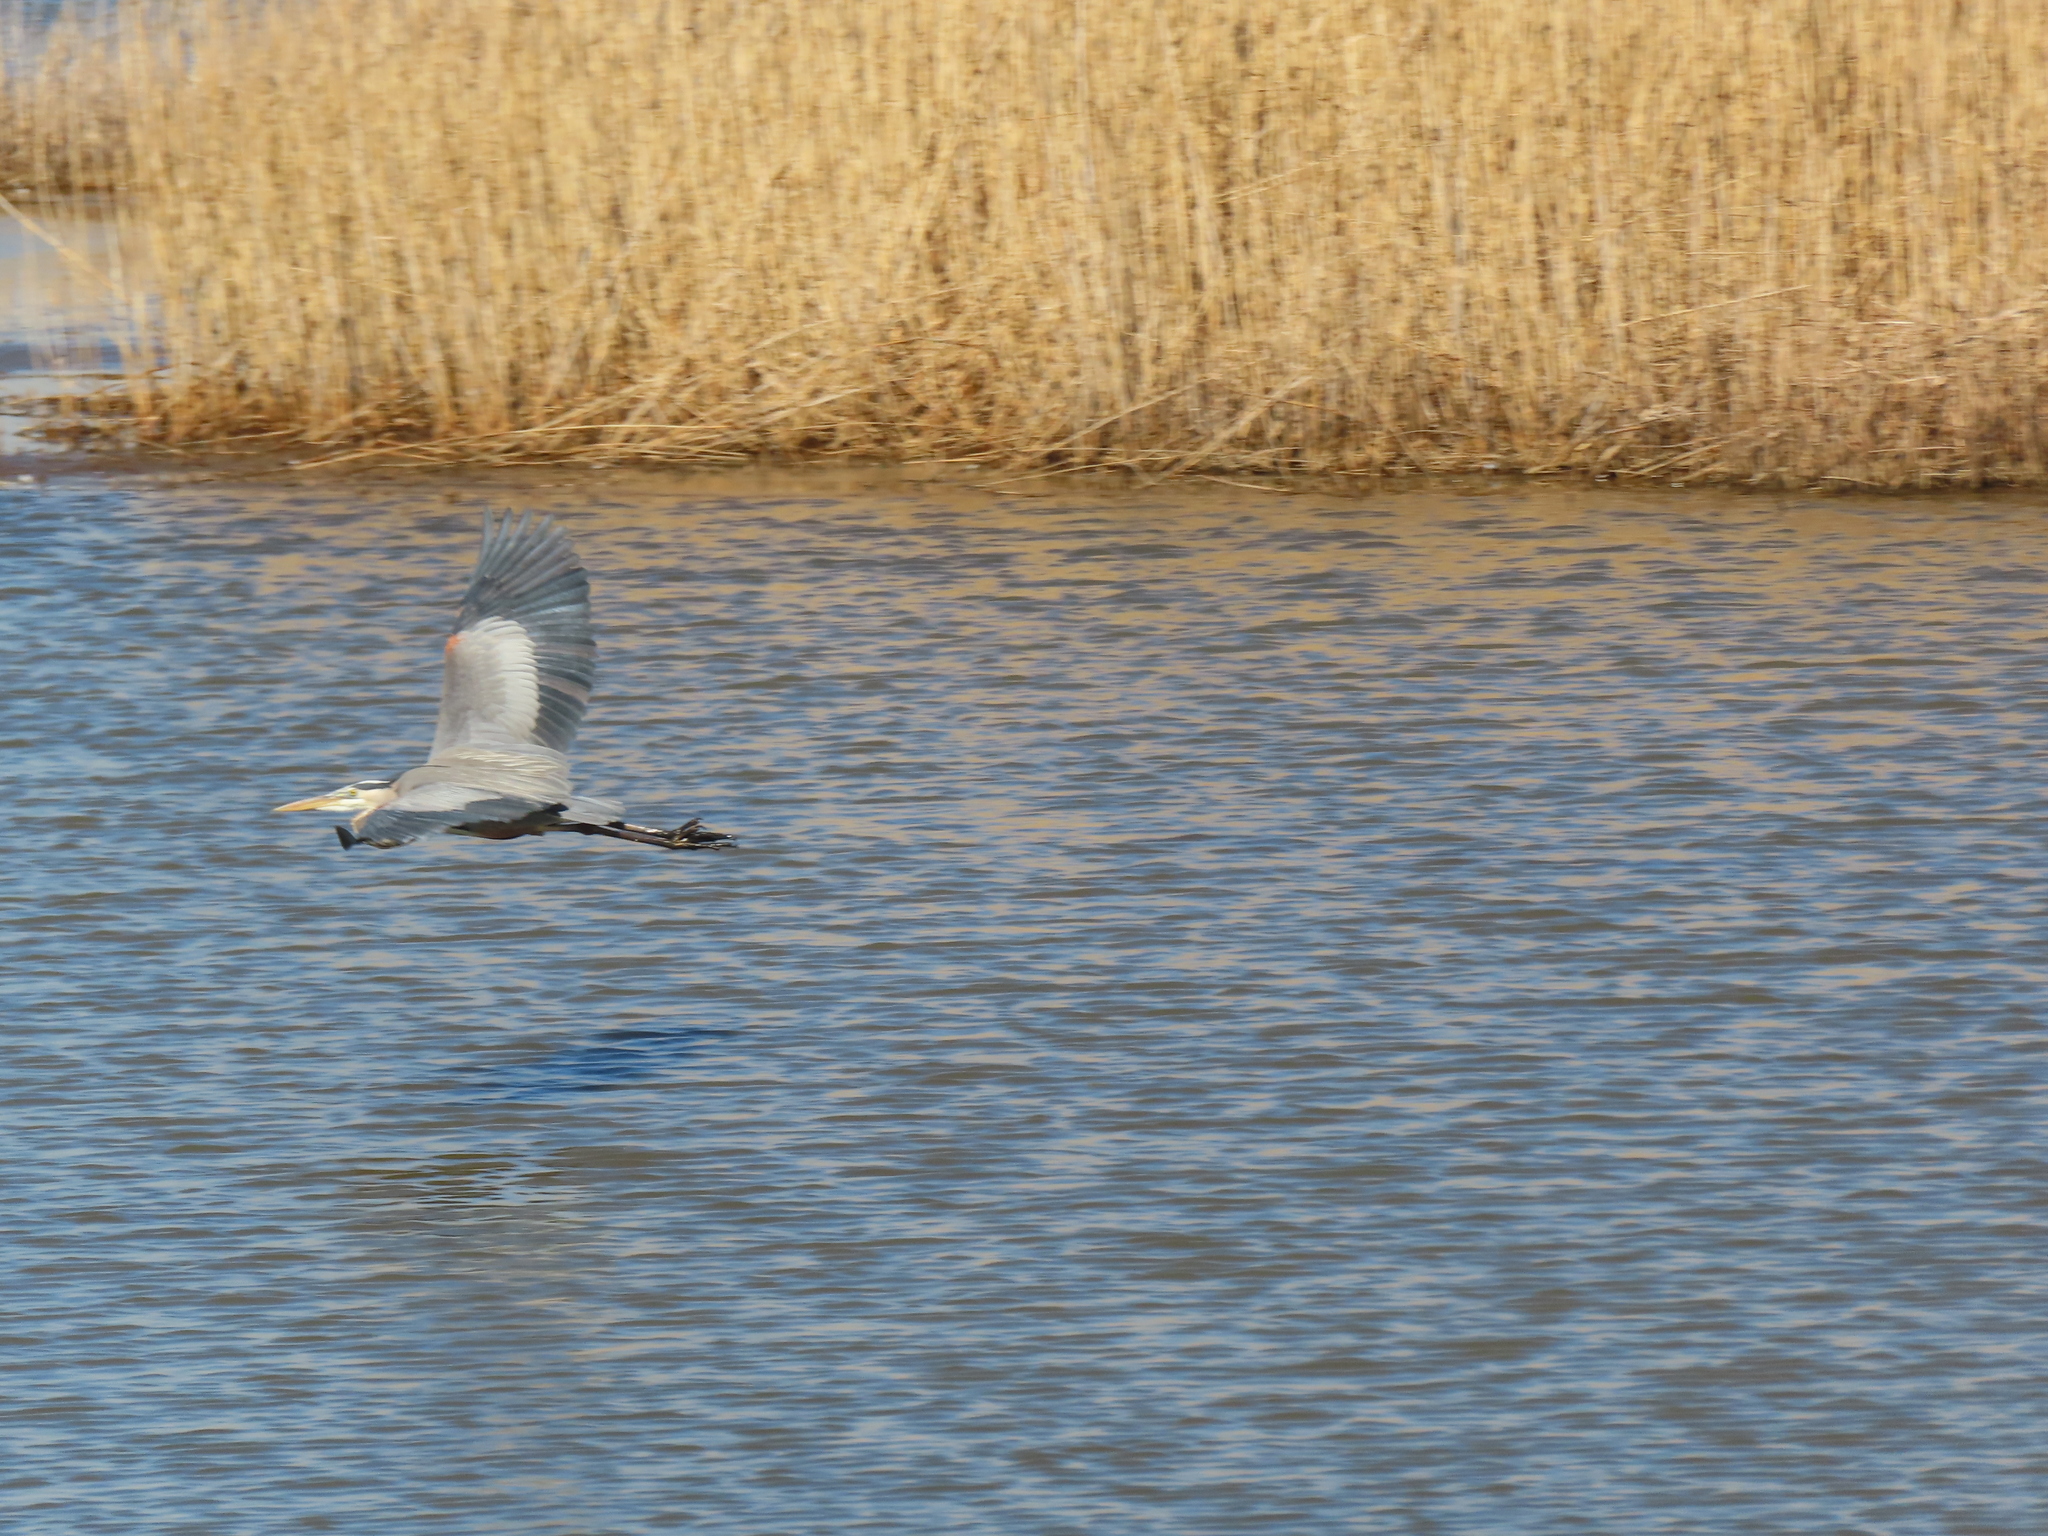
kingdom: Animalia
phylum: Chordata
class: Aves
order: Pelecaniformes
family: Ardeidae
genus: Ardea
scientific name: Ardea herodias
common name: Great blue heron
